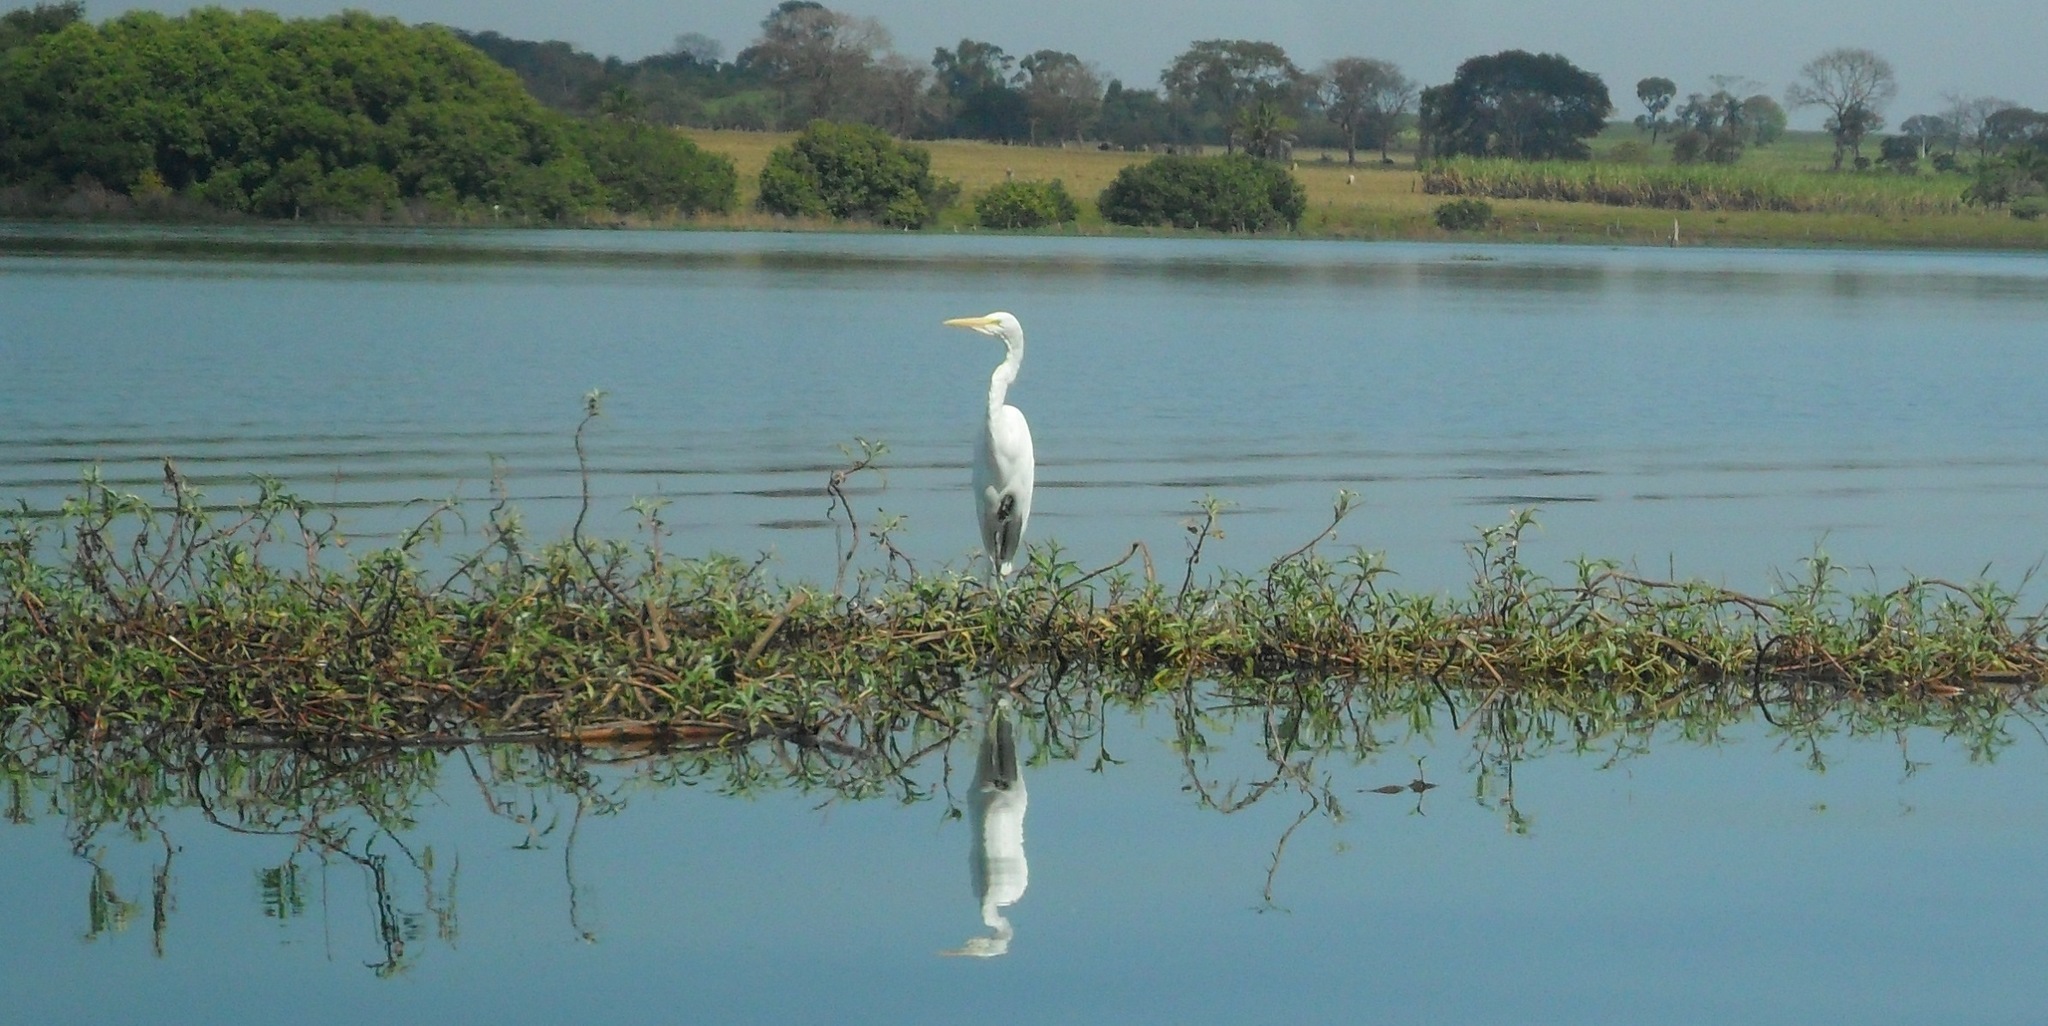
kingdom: Animalia
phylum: Chordata
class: Aves
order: Pelecaniformes
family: Ardeidae
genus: Ardea
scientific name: Ardea cocoi
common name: Cocoi heron
